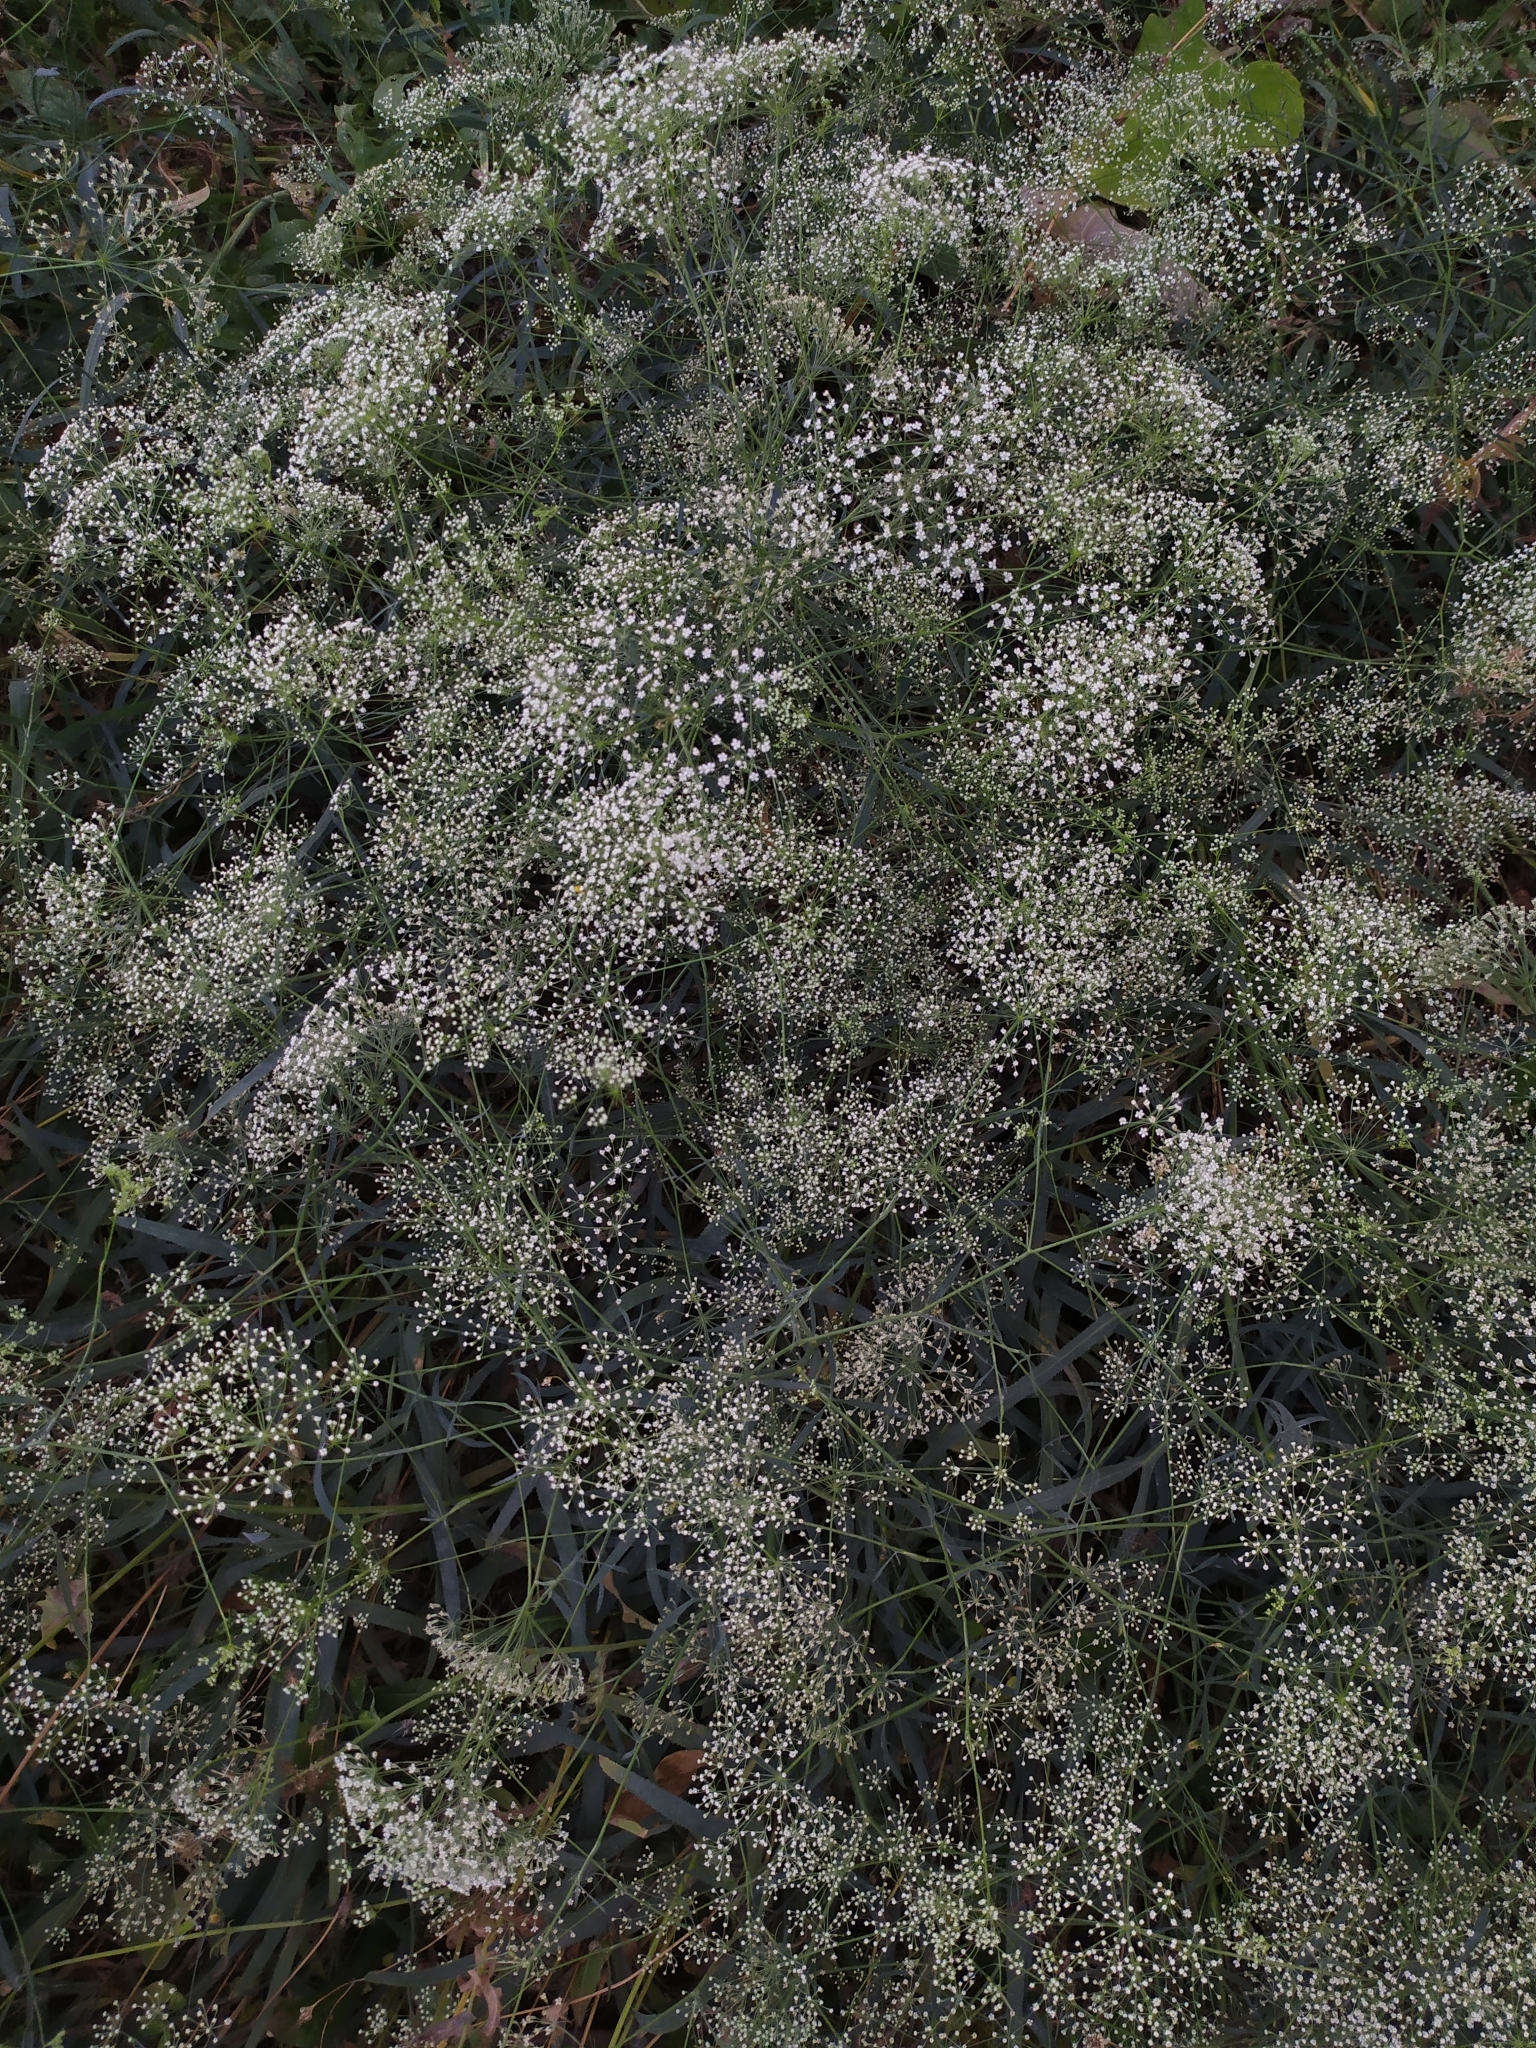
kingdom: Plantae
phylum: Tracheophyta
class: Magnoliopsida
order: Apiales
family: Apiaceae
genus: Falcaria
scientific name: Falcaria vulgaris
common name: Longleaf
